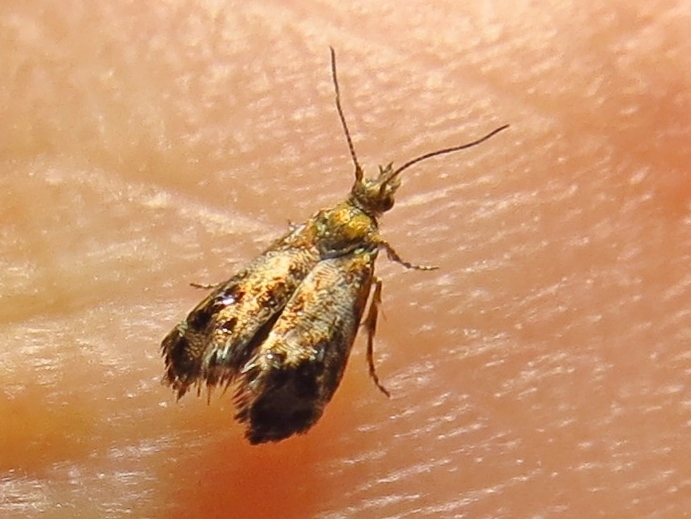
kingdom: Animalia
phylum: Arthropoda
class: Insecta
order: Lepidoptera
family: Choreutidae
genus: Tebenna
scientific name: Tebenna gnaphaliella
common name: Everlasting tebenna moth
